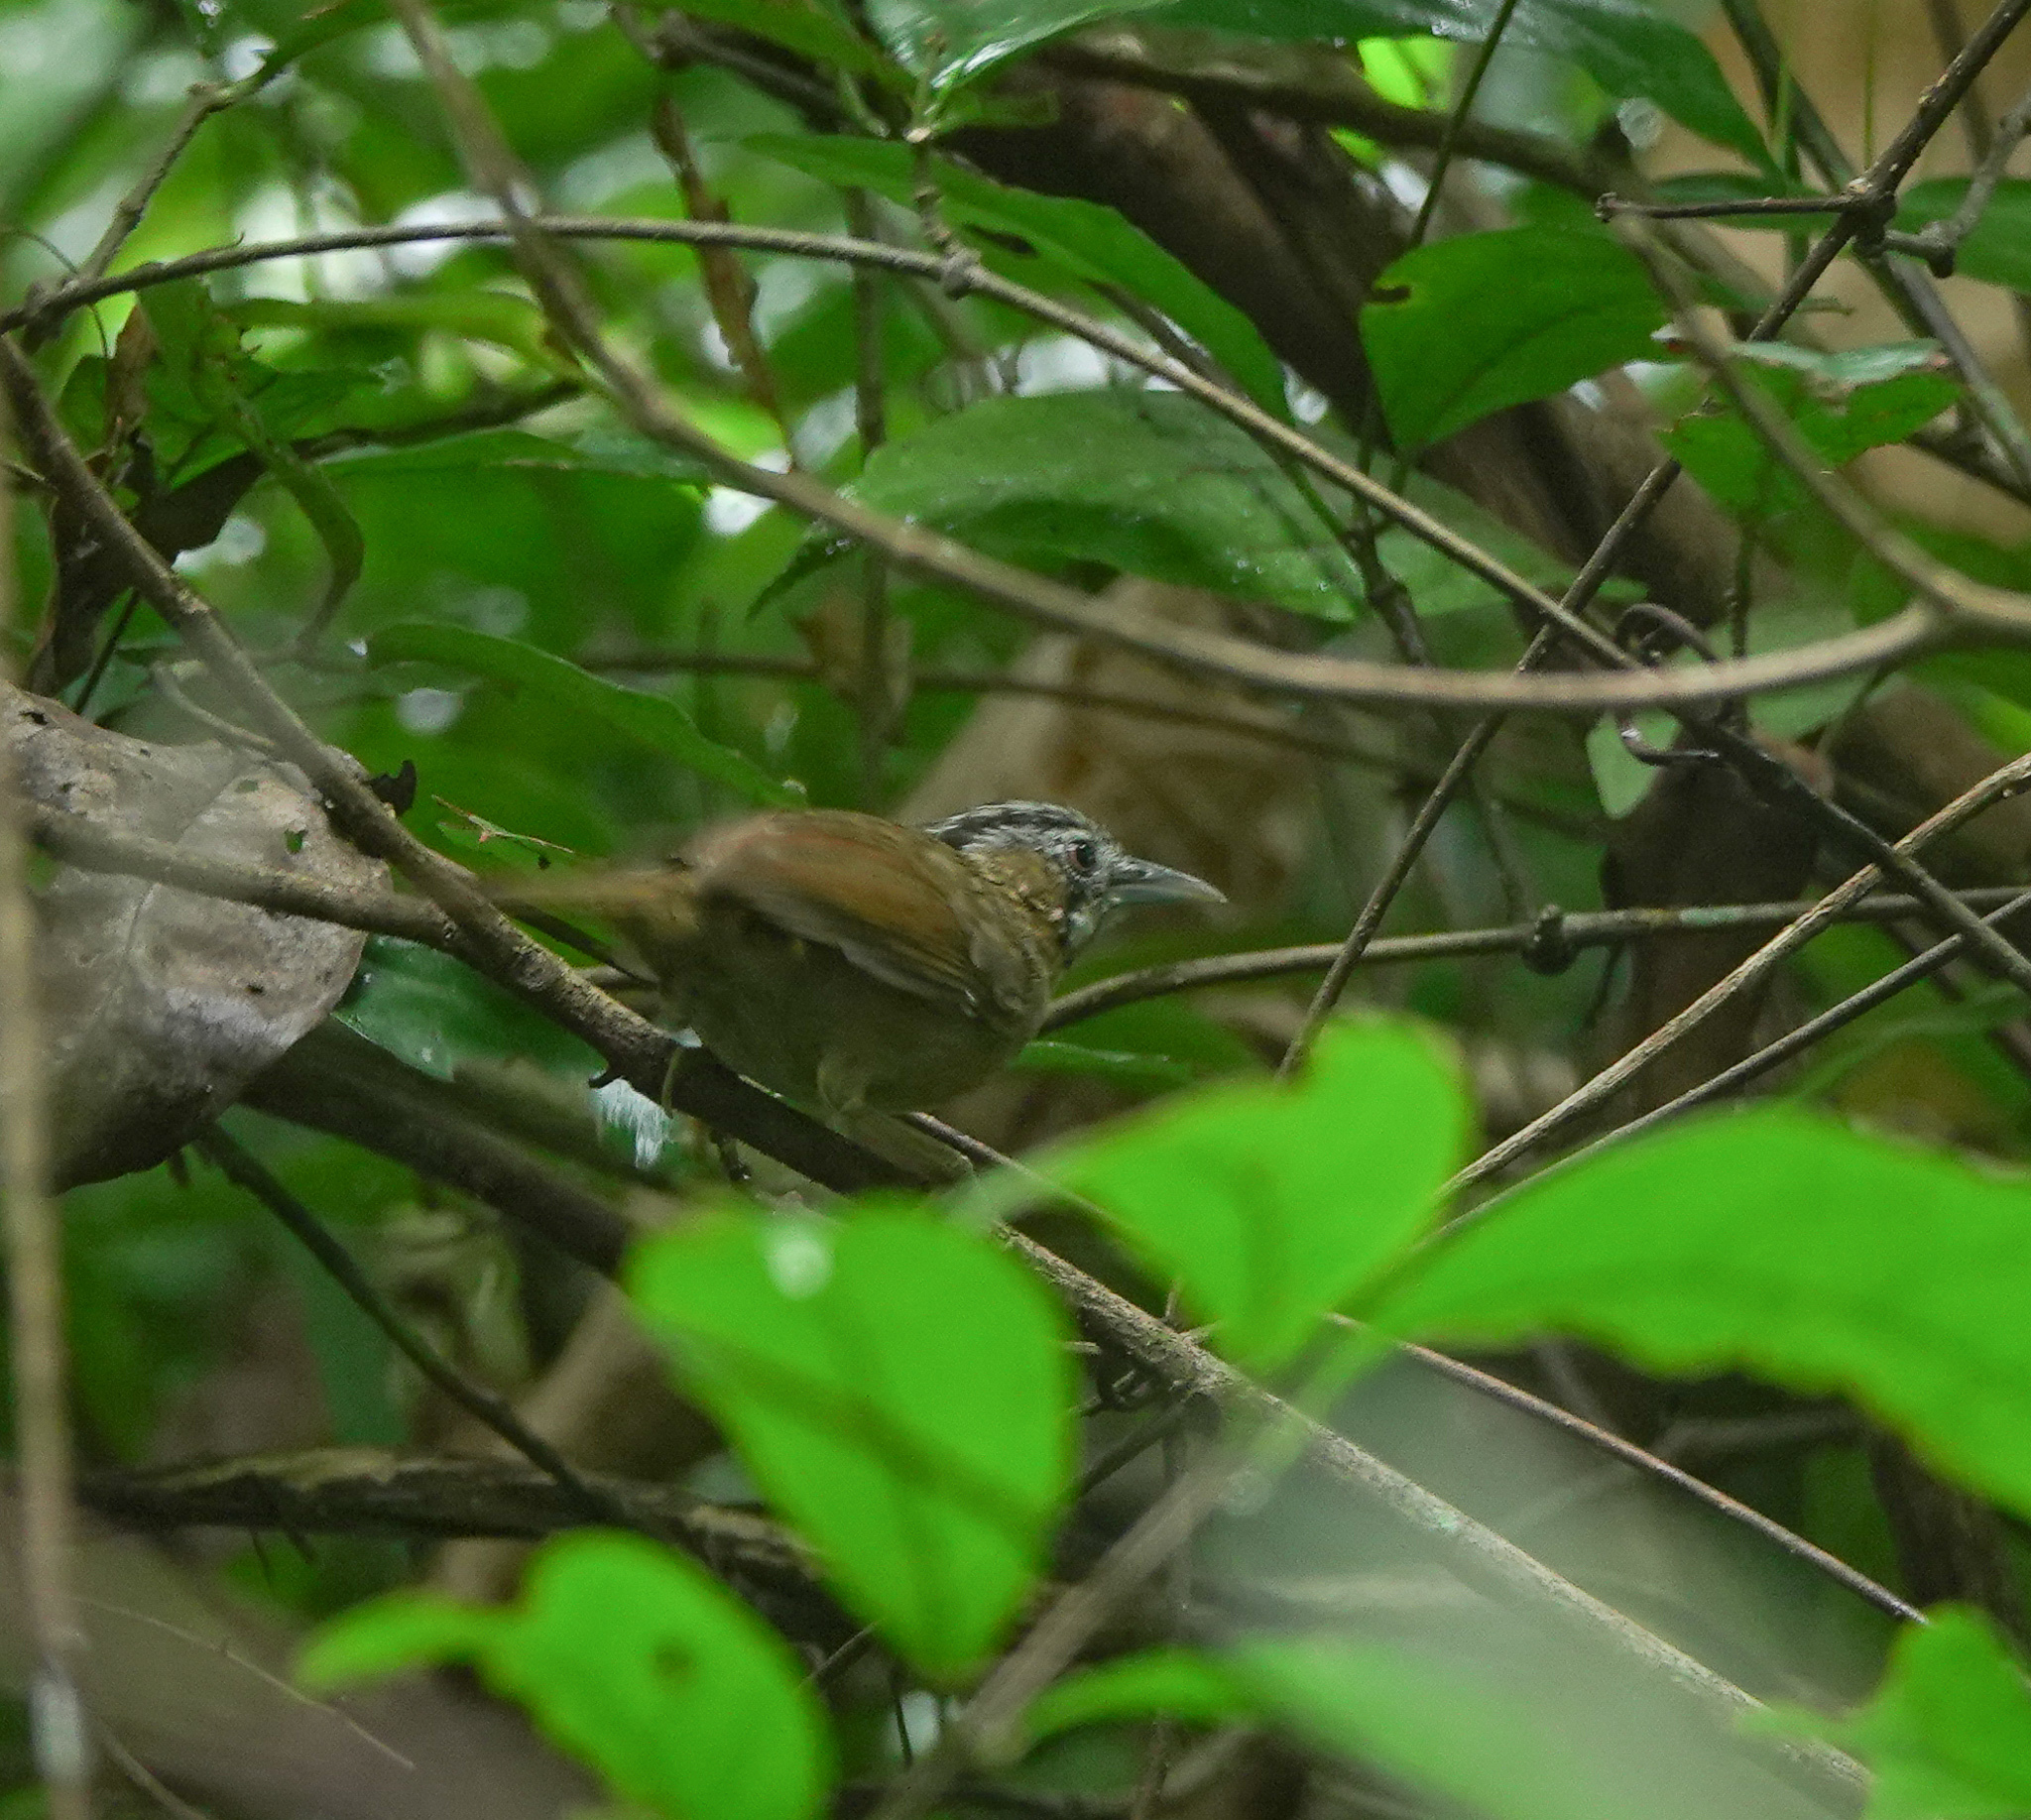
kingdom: Animalia
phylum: Chordata
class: Aves
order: Passeriformes
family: Timaliidae
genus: Stachyris
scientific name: Stachyris nigriceps
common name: Grey-throated babbler
